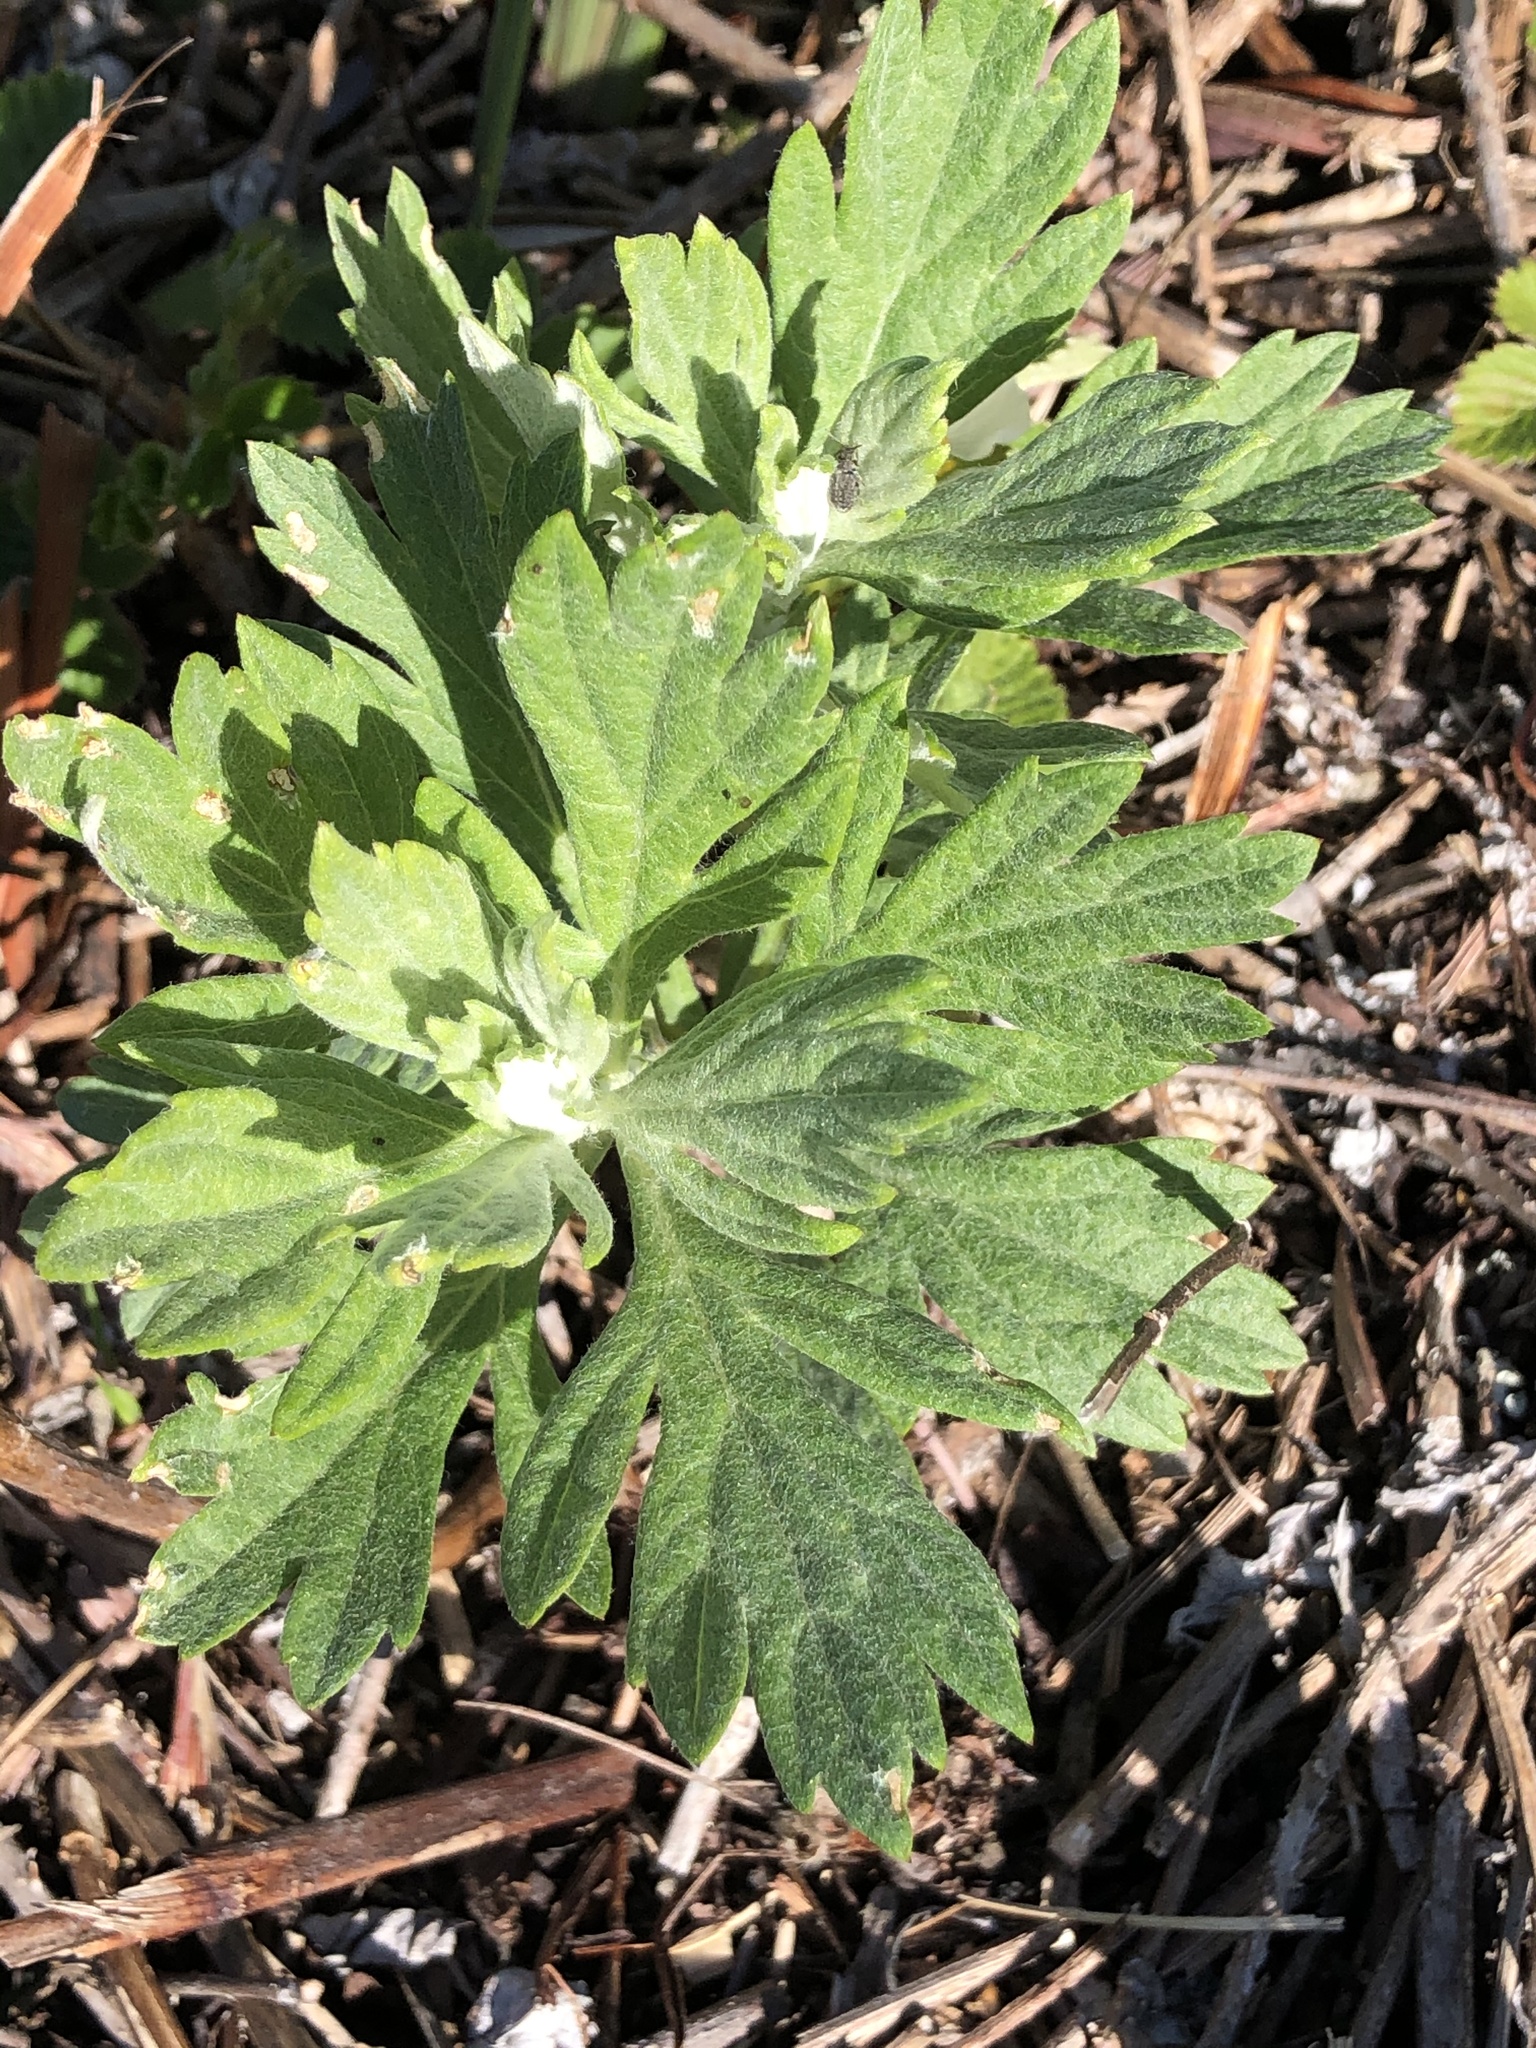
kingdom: Plantae
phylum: Tracheophyta
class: Magnoliopsida
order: Asterales
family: Asteraceae
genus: Artemisia
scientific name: Artemisia douglasiana
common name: Northwest mugwort
